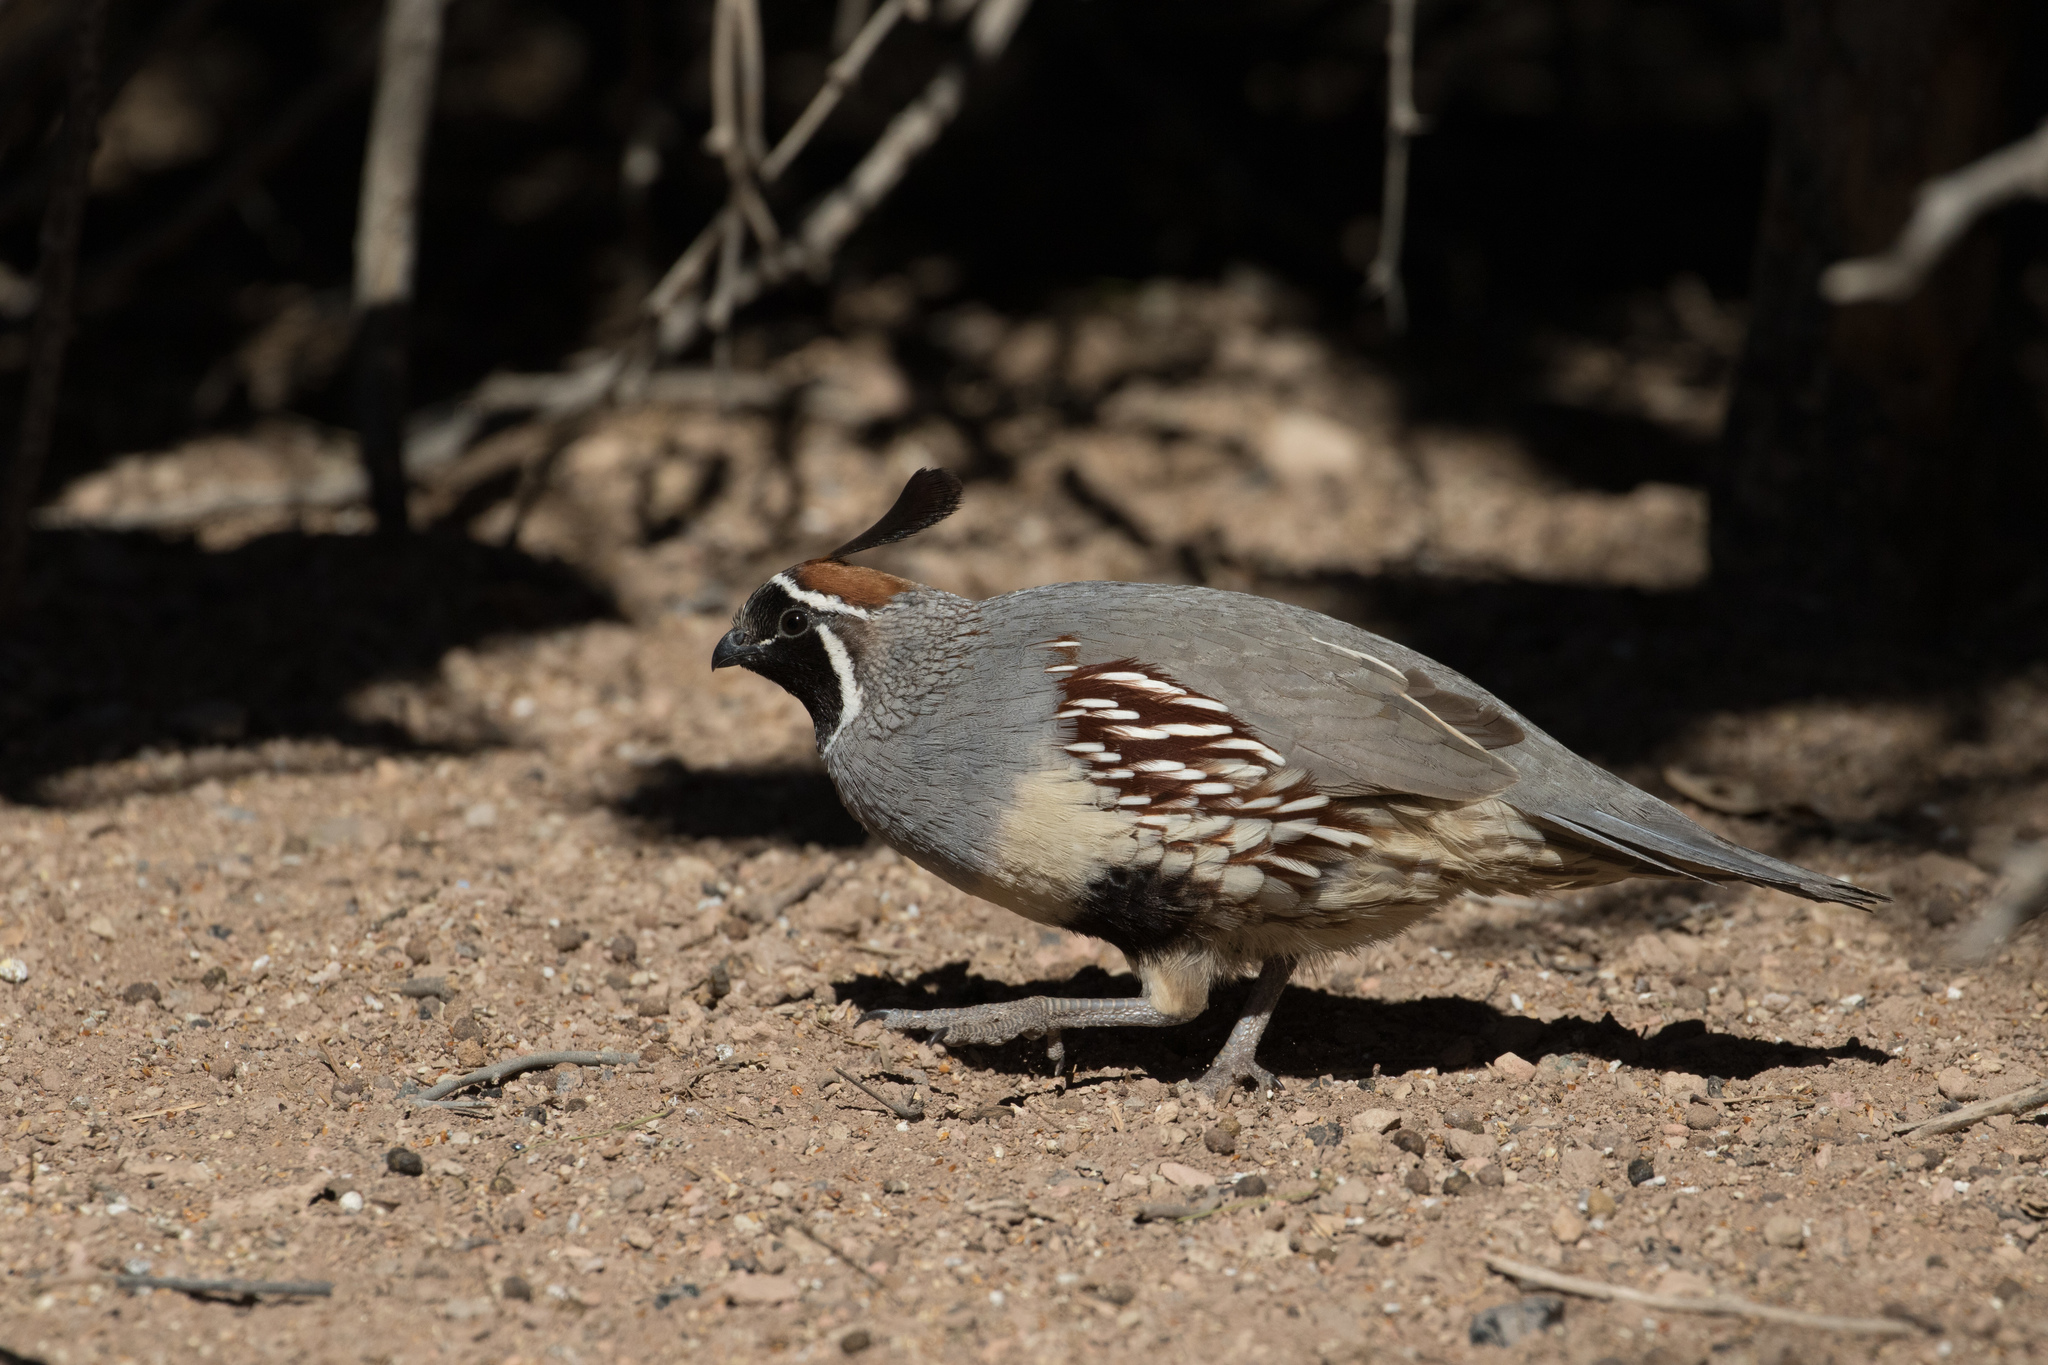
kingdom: Animalia
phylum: Chordata
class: Aves
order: Galliformes
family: Odontophoridae
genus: Callipepla
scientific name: Callipepla gambelii
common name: Gambel's quail
